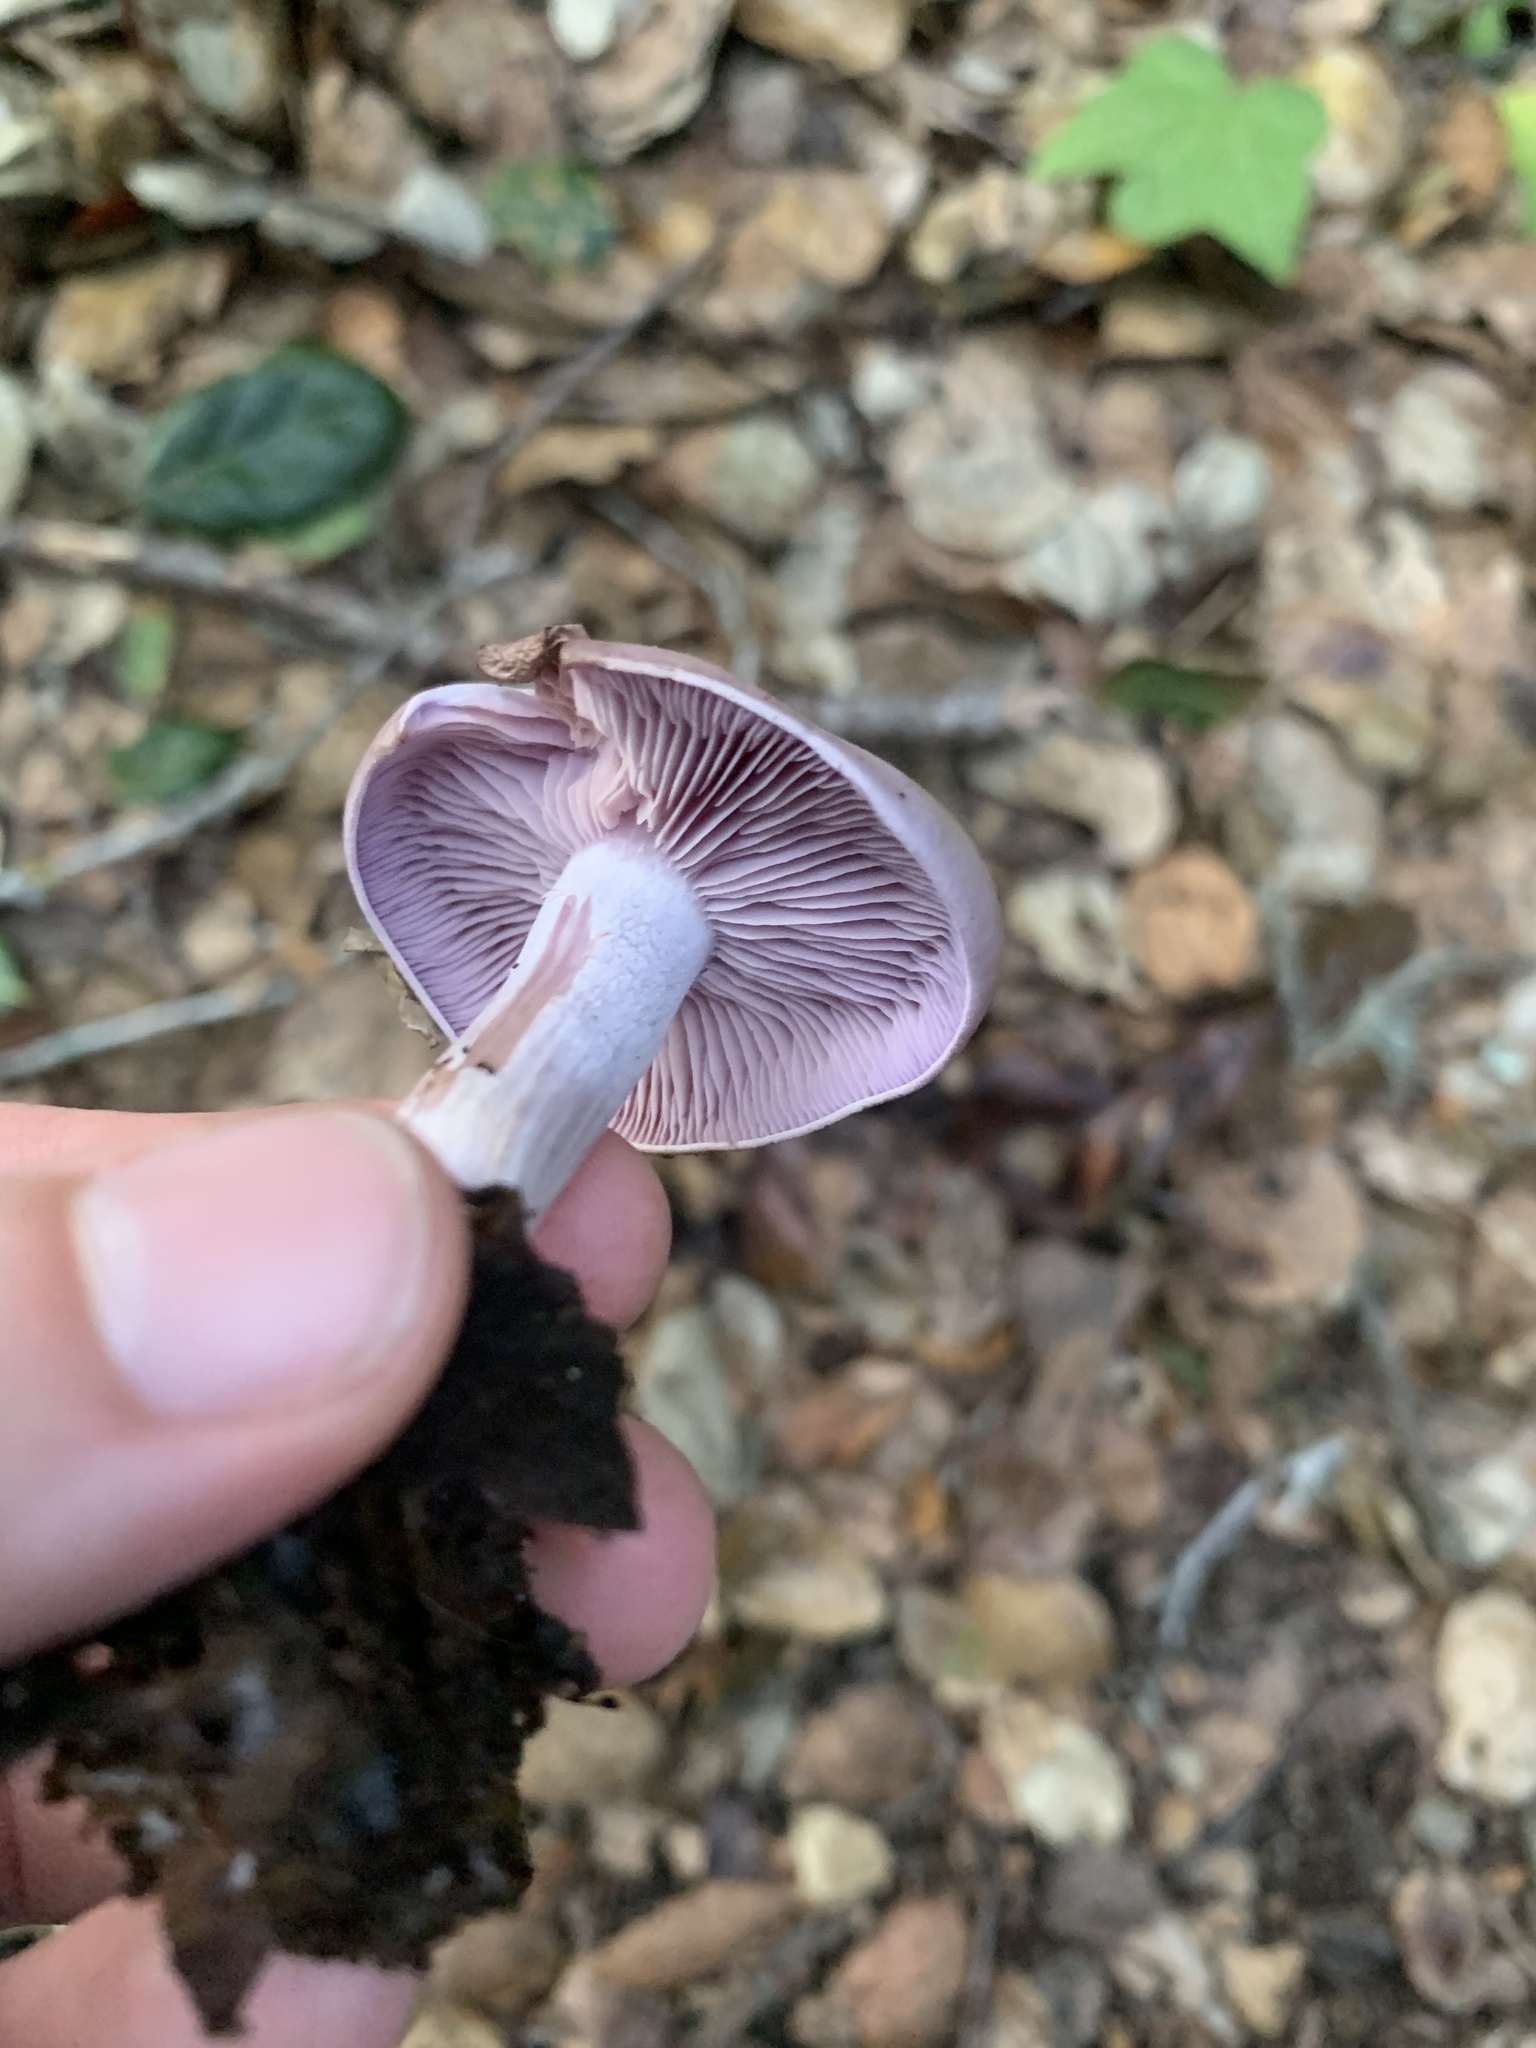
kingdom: Fungi
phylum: Basidiomycota
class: Agaricomycetes
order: Agaricales
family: Tricholomataceae
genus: Collybia
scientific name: Collybia
